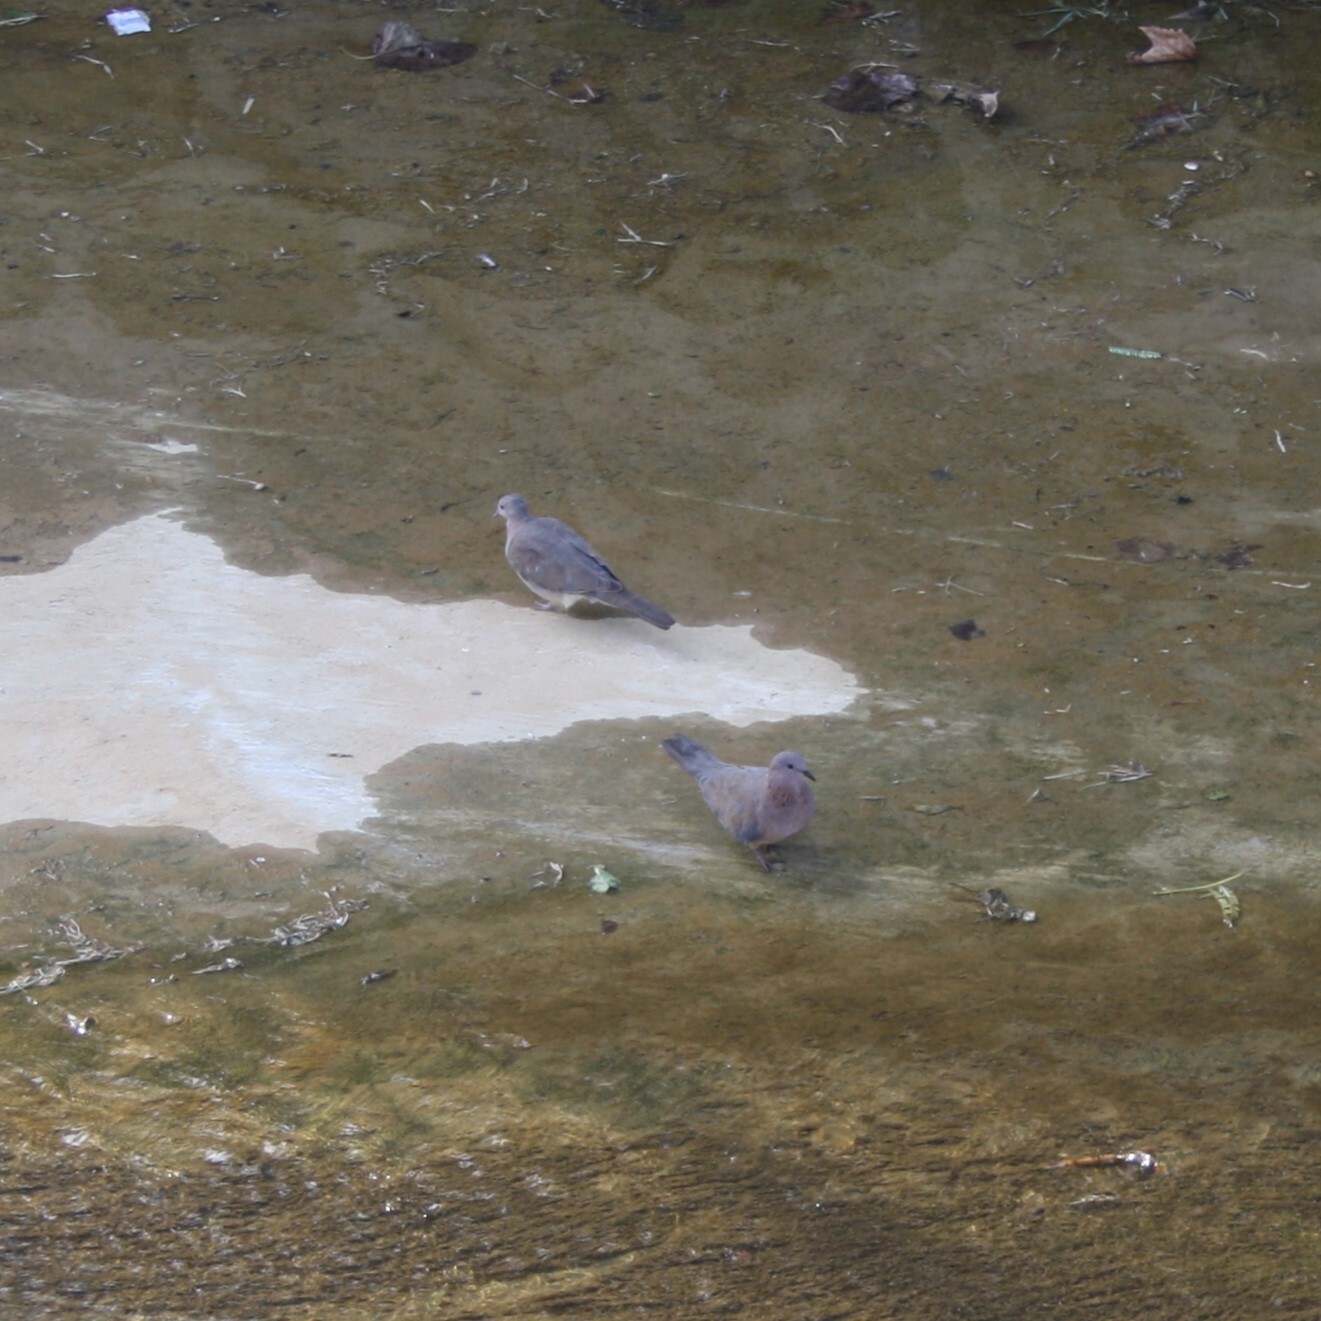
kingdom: Animalia
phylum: Chordata
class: Aves
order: Columbiformes
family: Columbidae
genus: Spilopelia
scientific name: Spilopelia senegalensis
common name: Laughing dove
